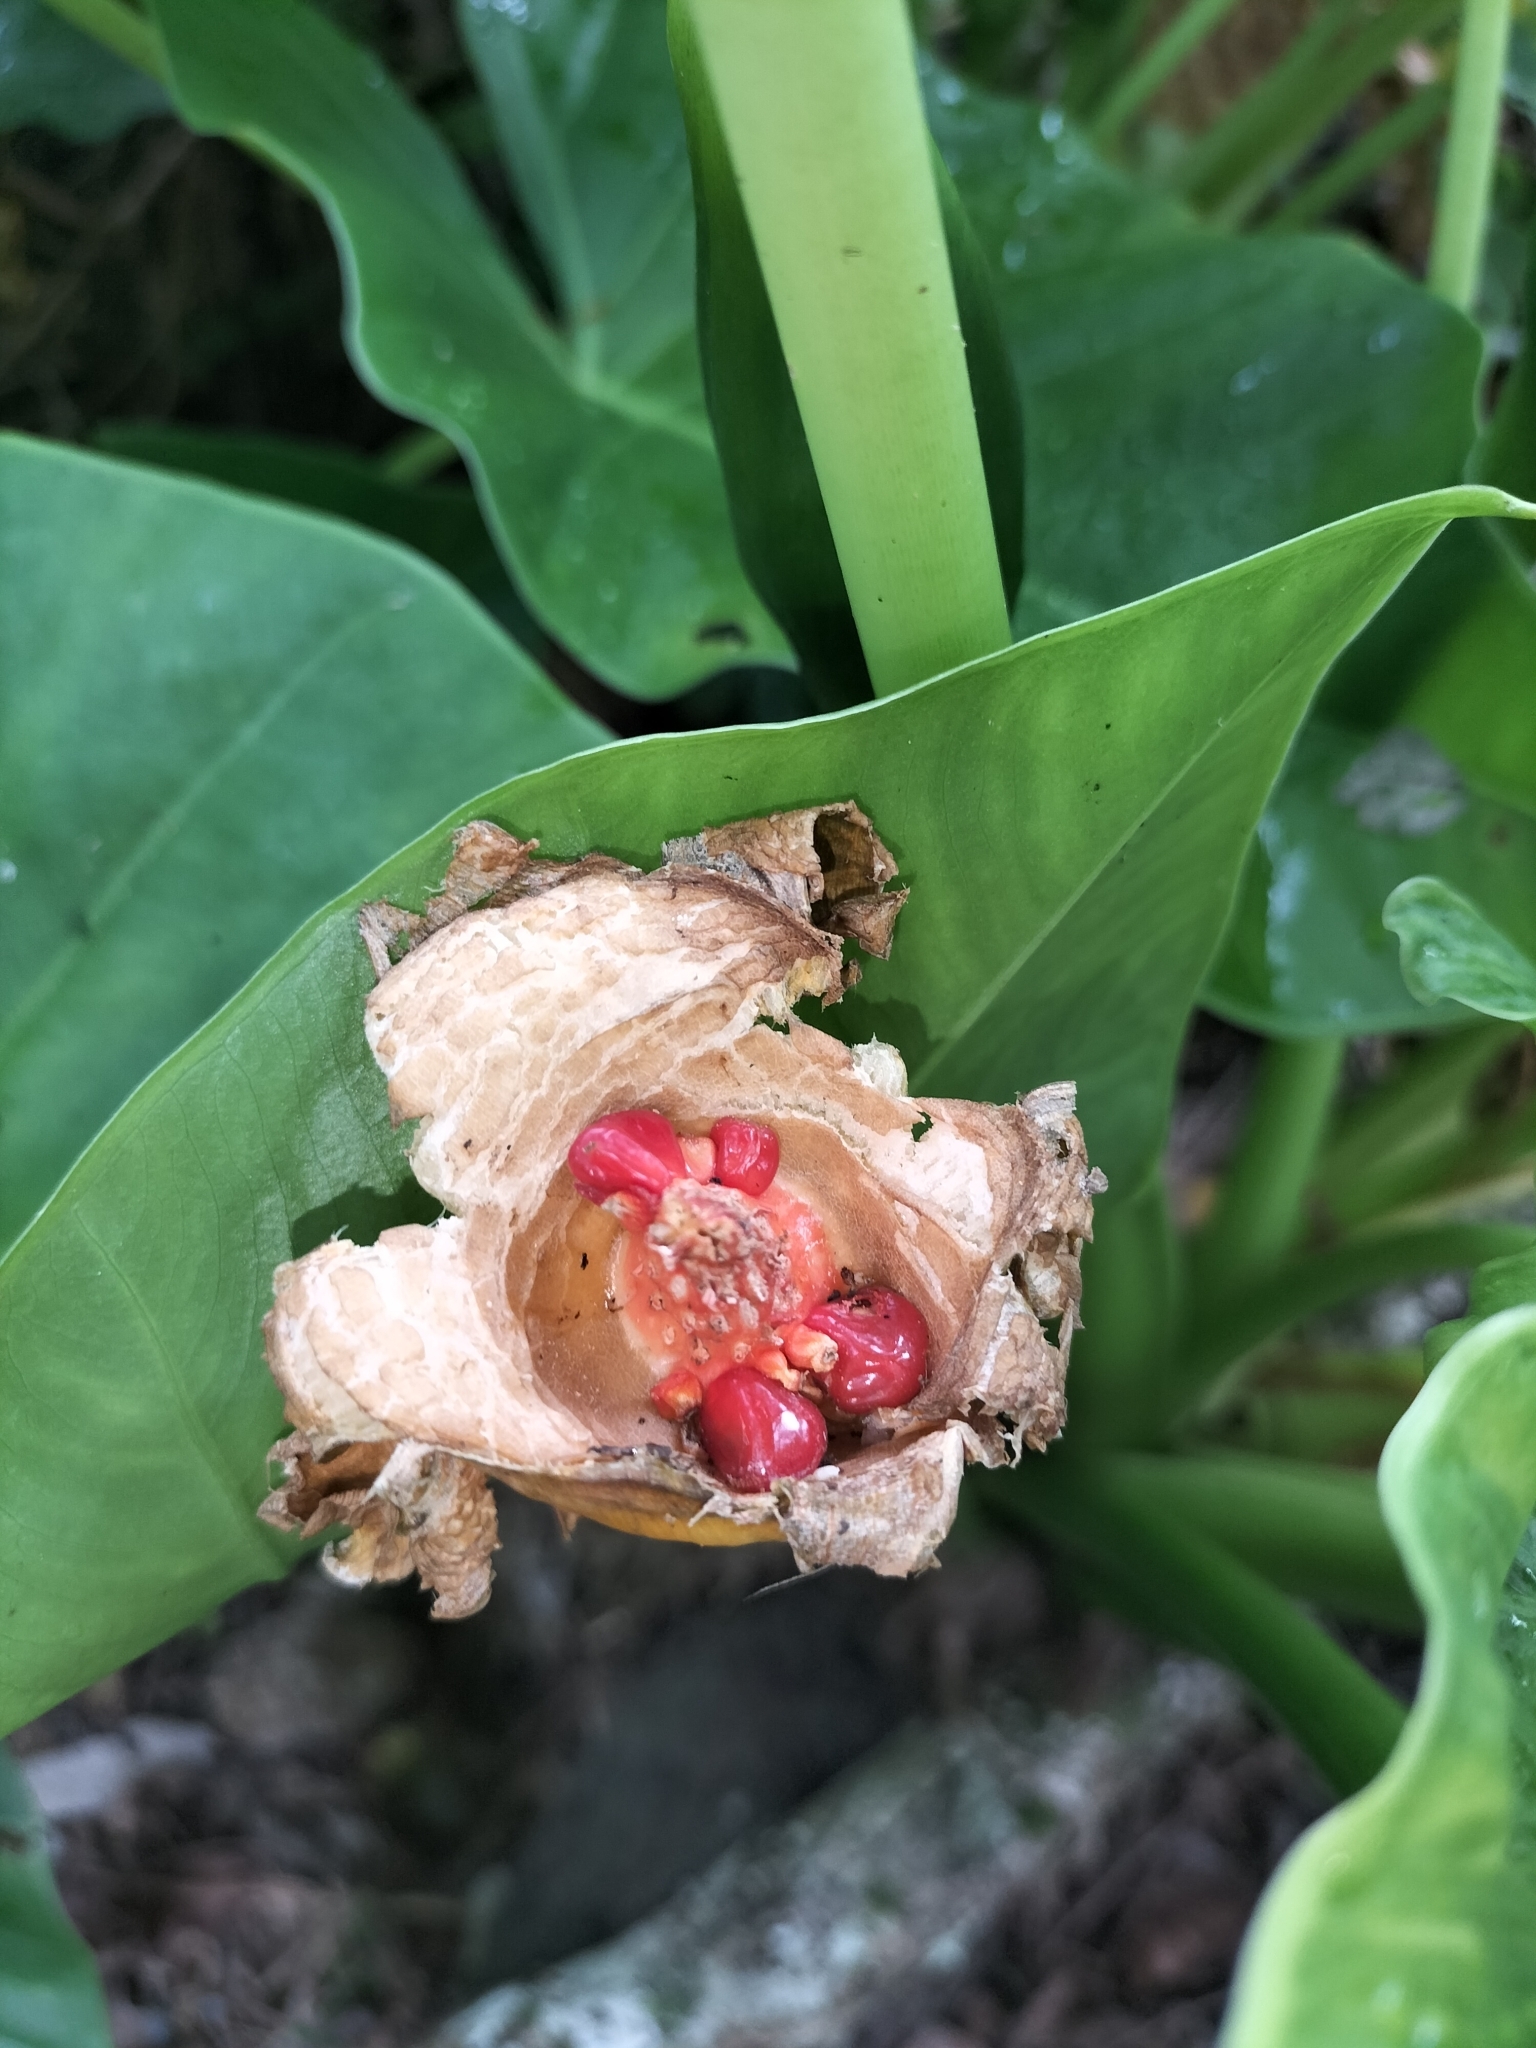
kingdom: Plantae
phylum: Tracheophyta
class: Liliopsida
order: Alismatales
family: Araceae
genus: Alocasia
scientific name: Alocasia brisbanensis
